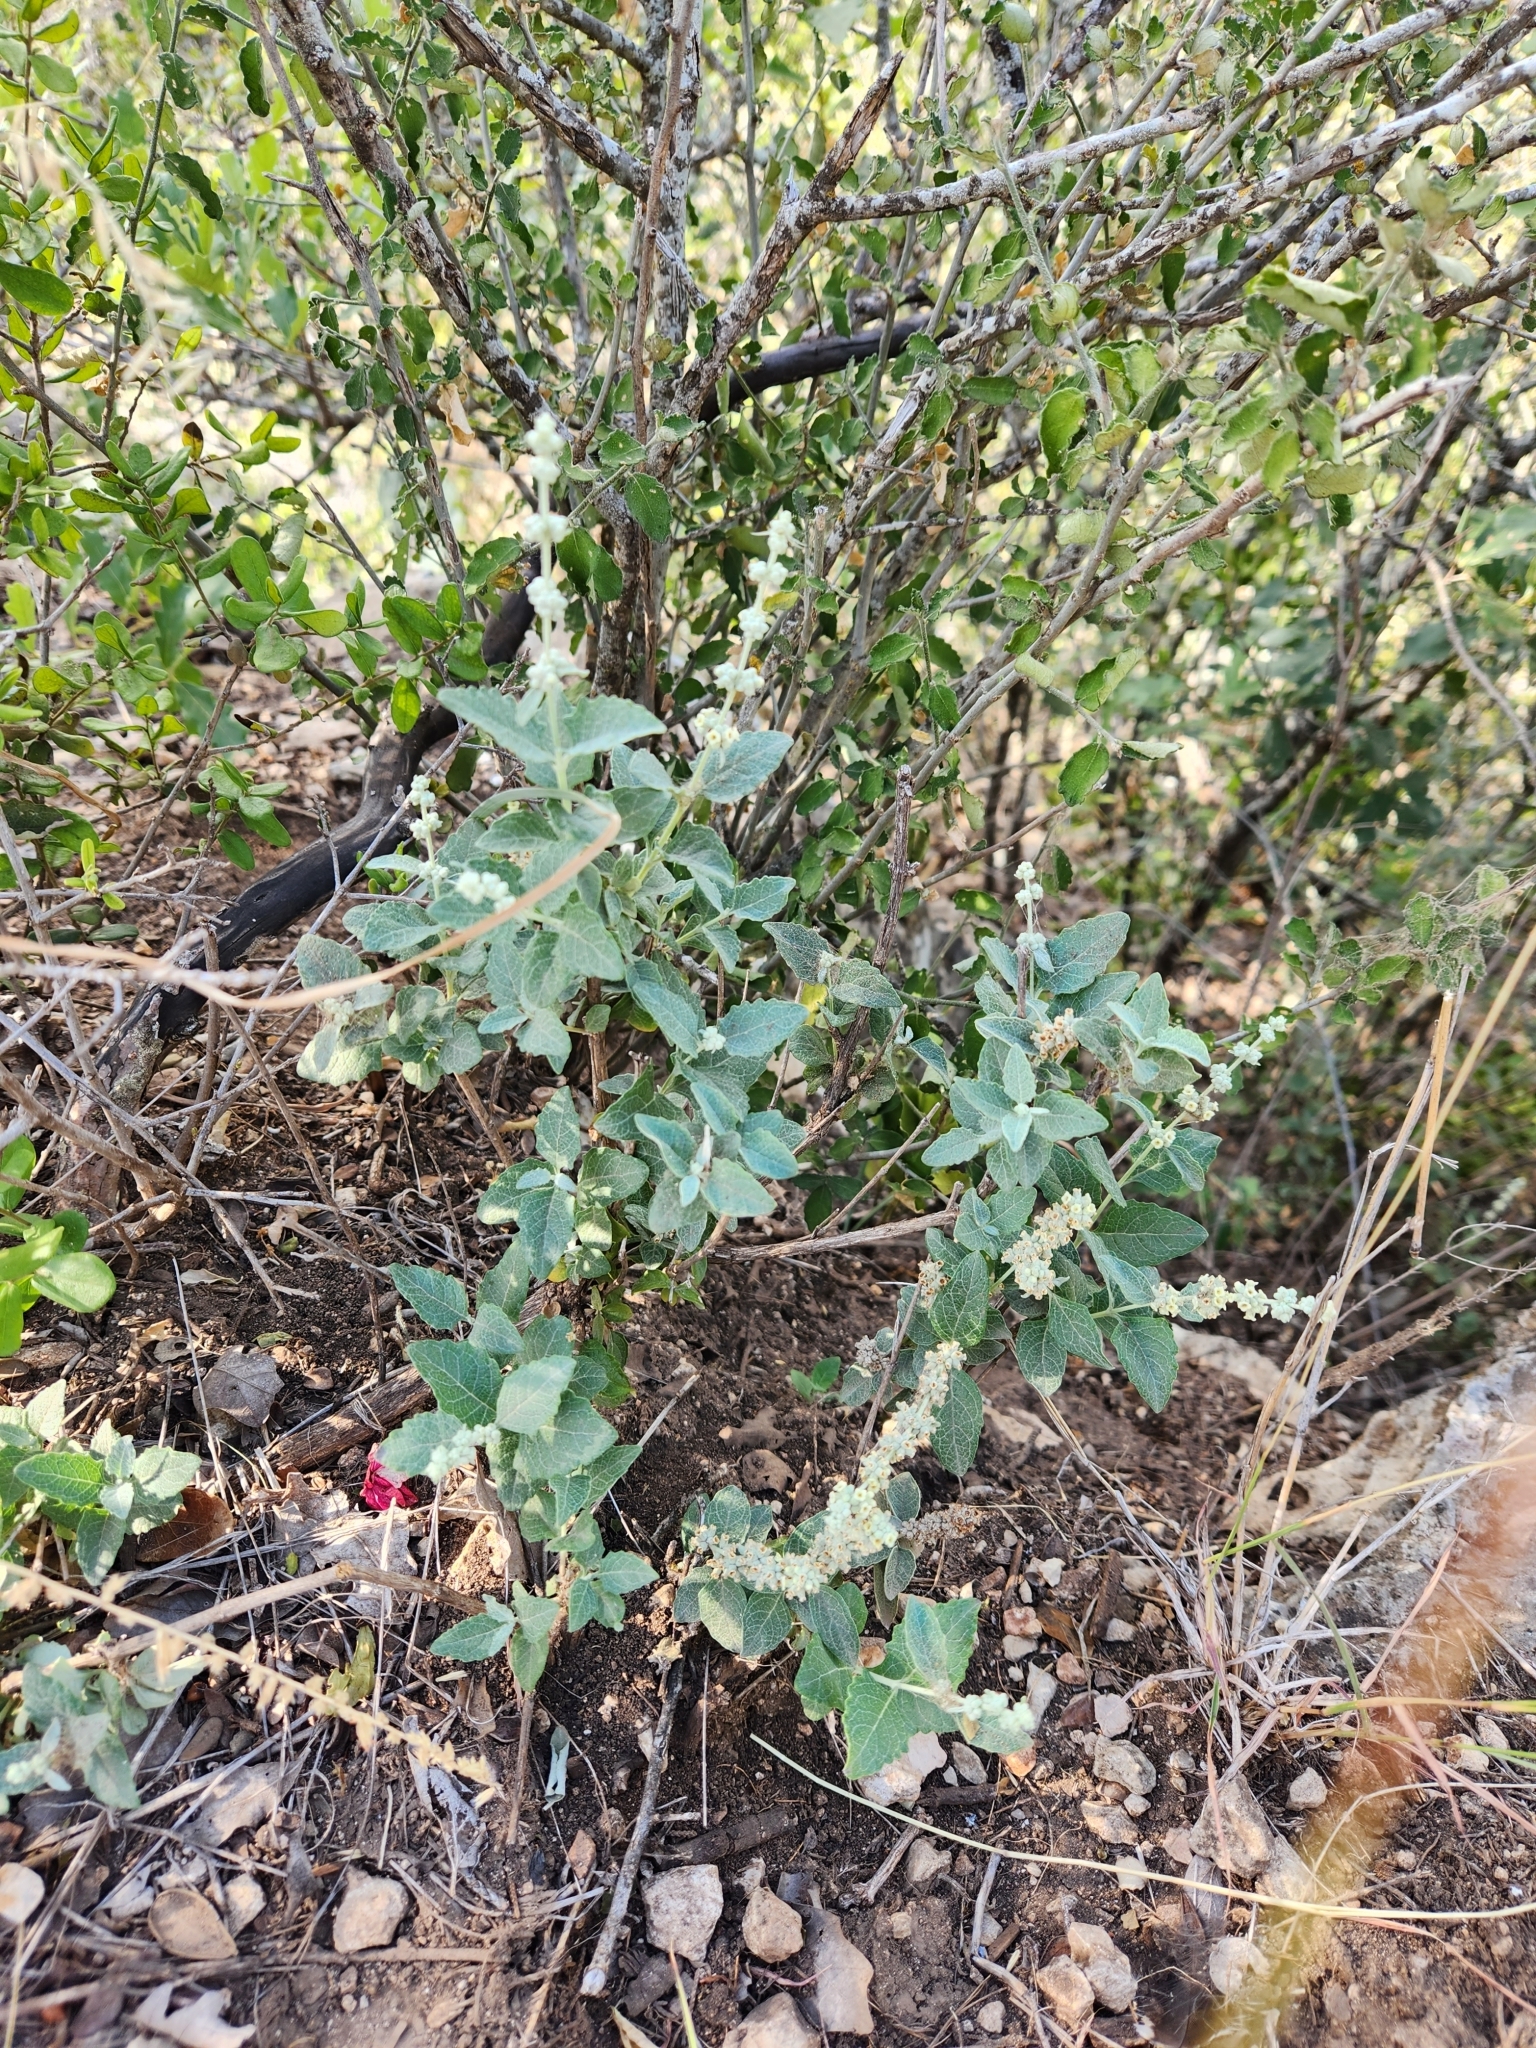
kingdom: Plantae
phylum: Tracheophyta
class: Magnoliopsida
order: Lamiales
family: Scrophulariaceae
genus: Buddleja
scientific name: Buddleja racemosa
